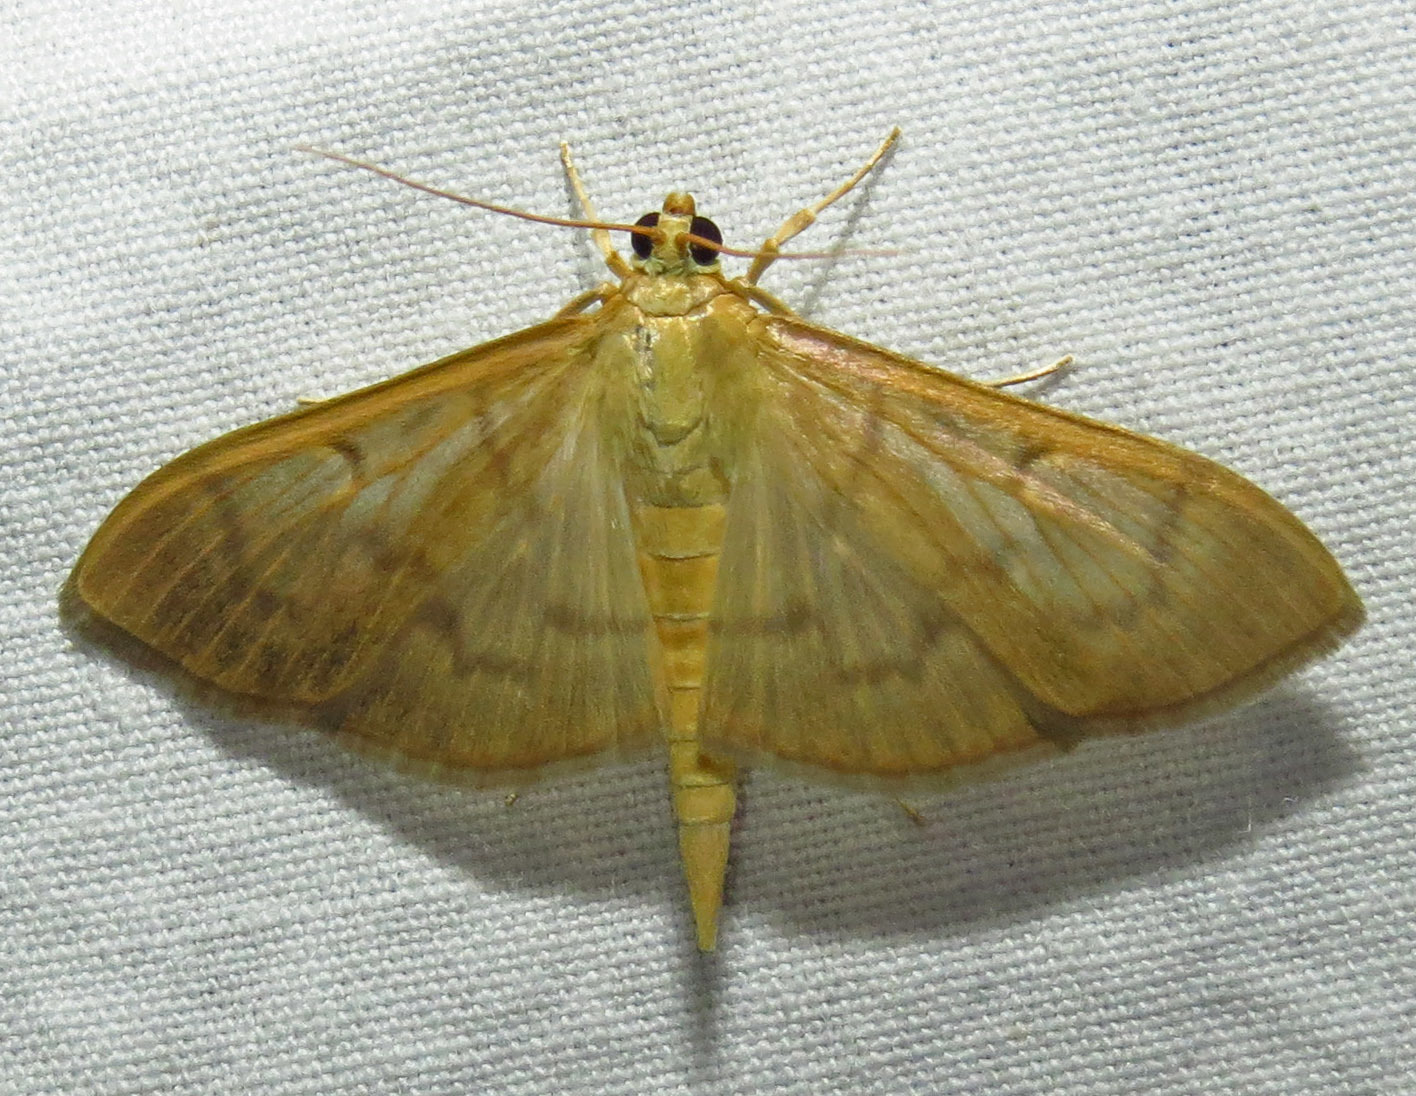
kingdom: Animalia
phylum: Arthropoda
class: Insecta
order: Lepidoptera
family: Crambidae
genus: Pleuroptya
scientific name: Pleuroptya silicalis
